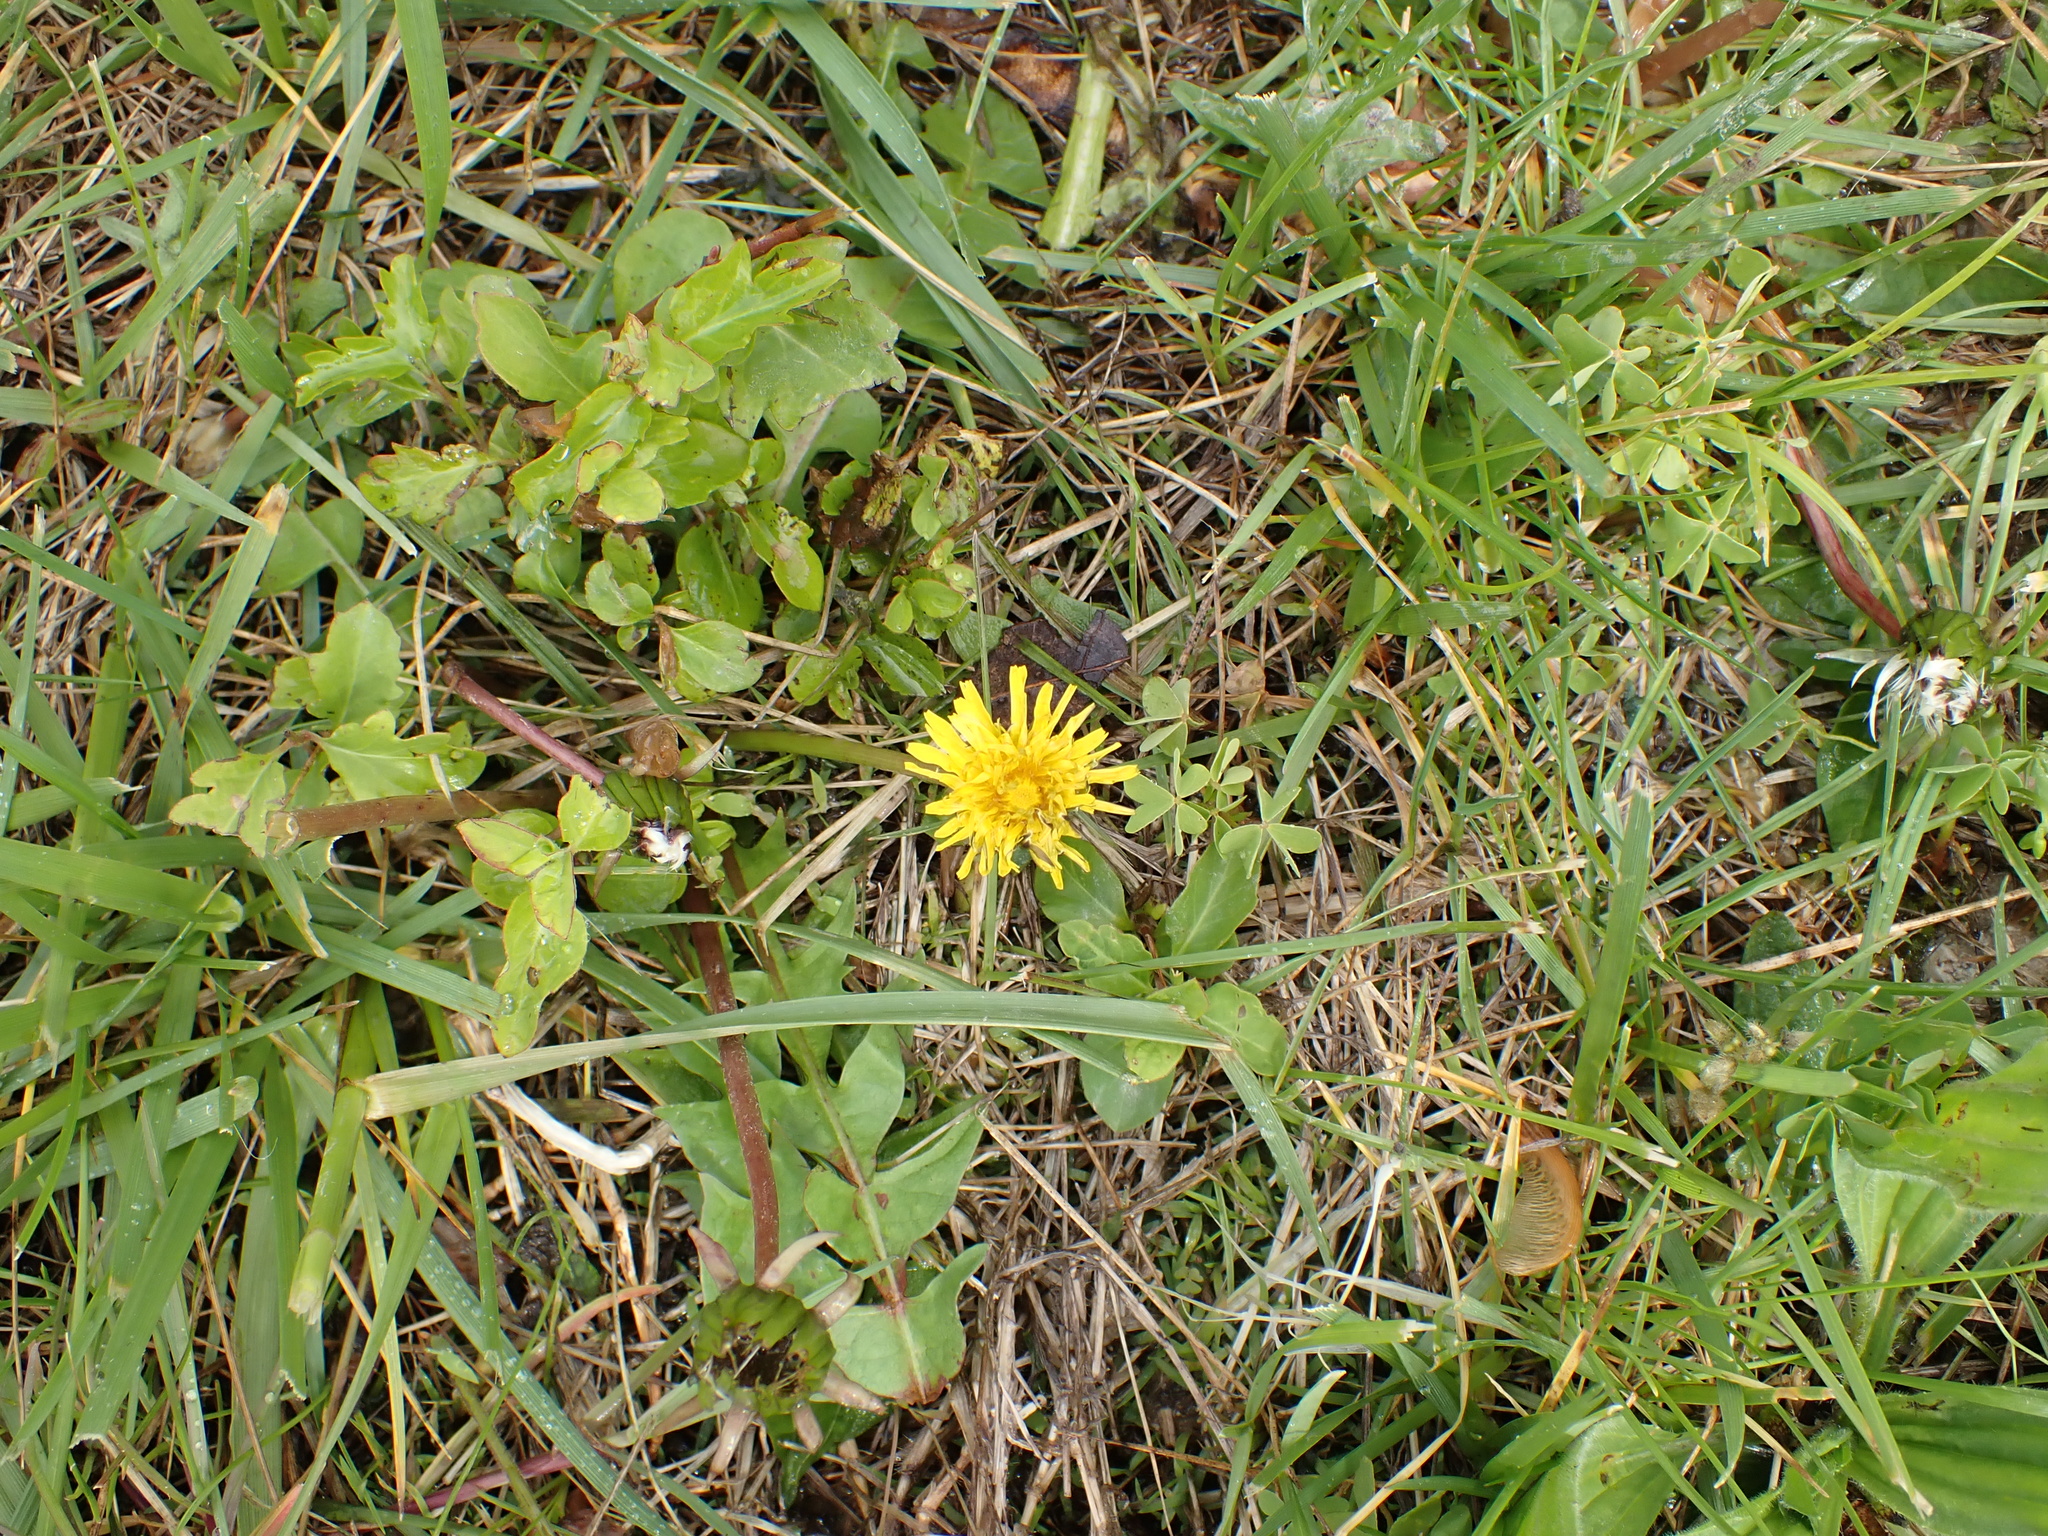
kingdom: Plantae
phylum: Tracheophyta
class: Magnoliopsida
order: Asterales
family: Asteraceae
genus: Taraxacum
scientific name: Taraxacum officinale
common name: Common dandelion
